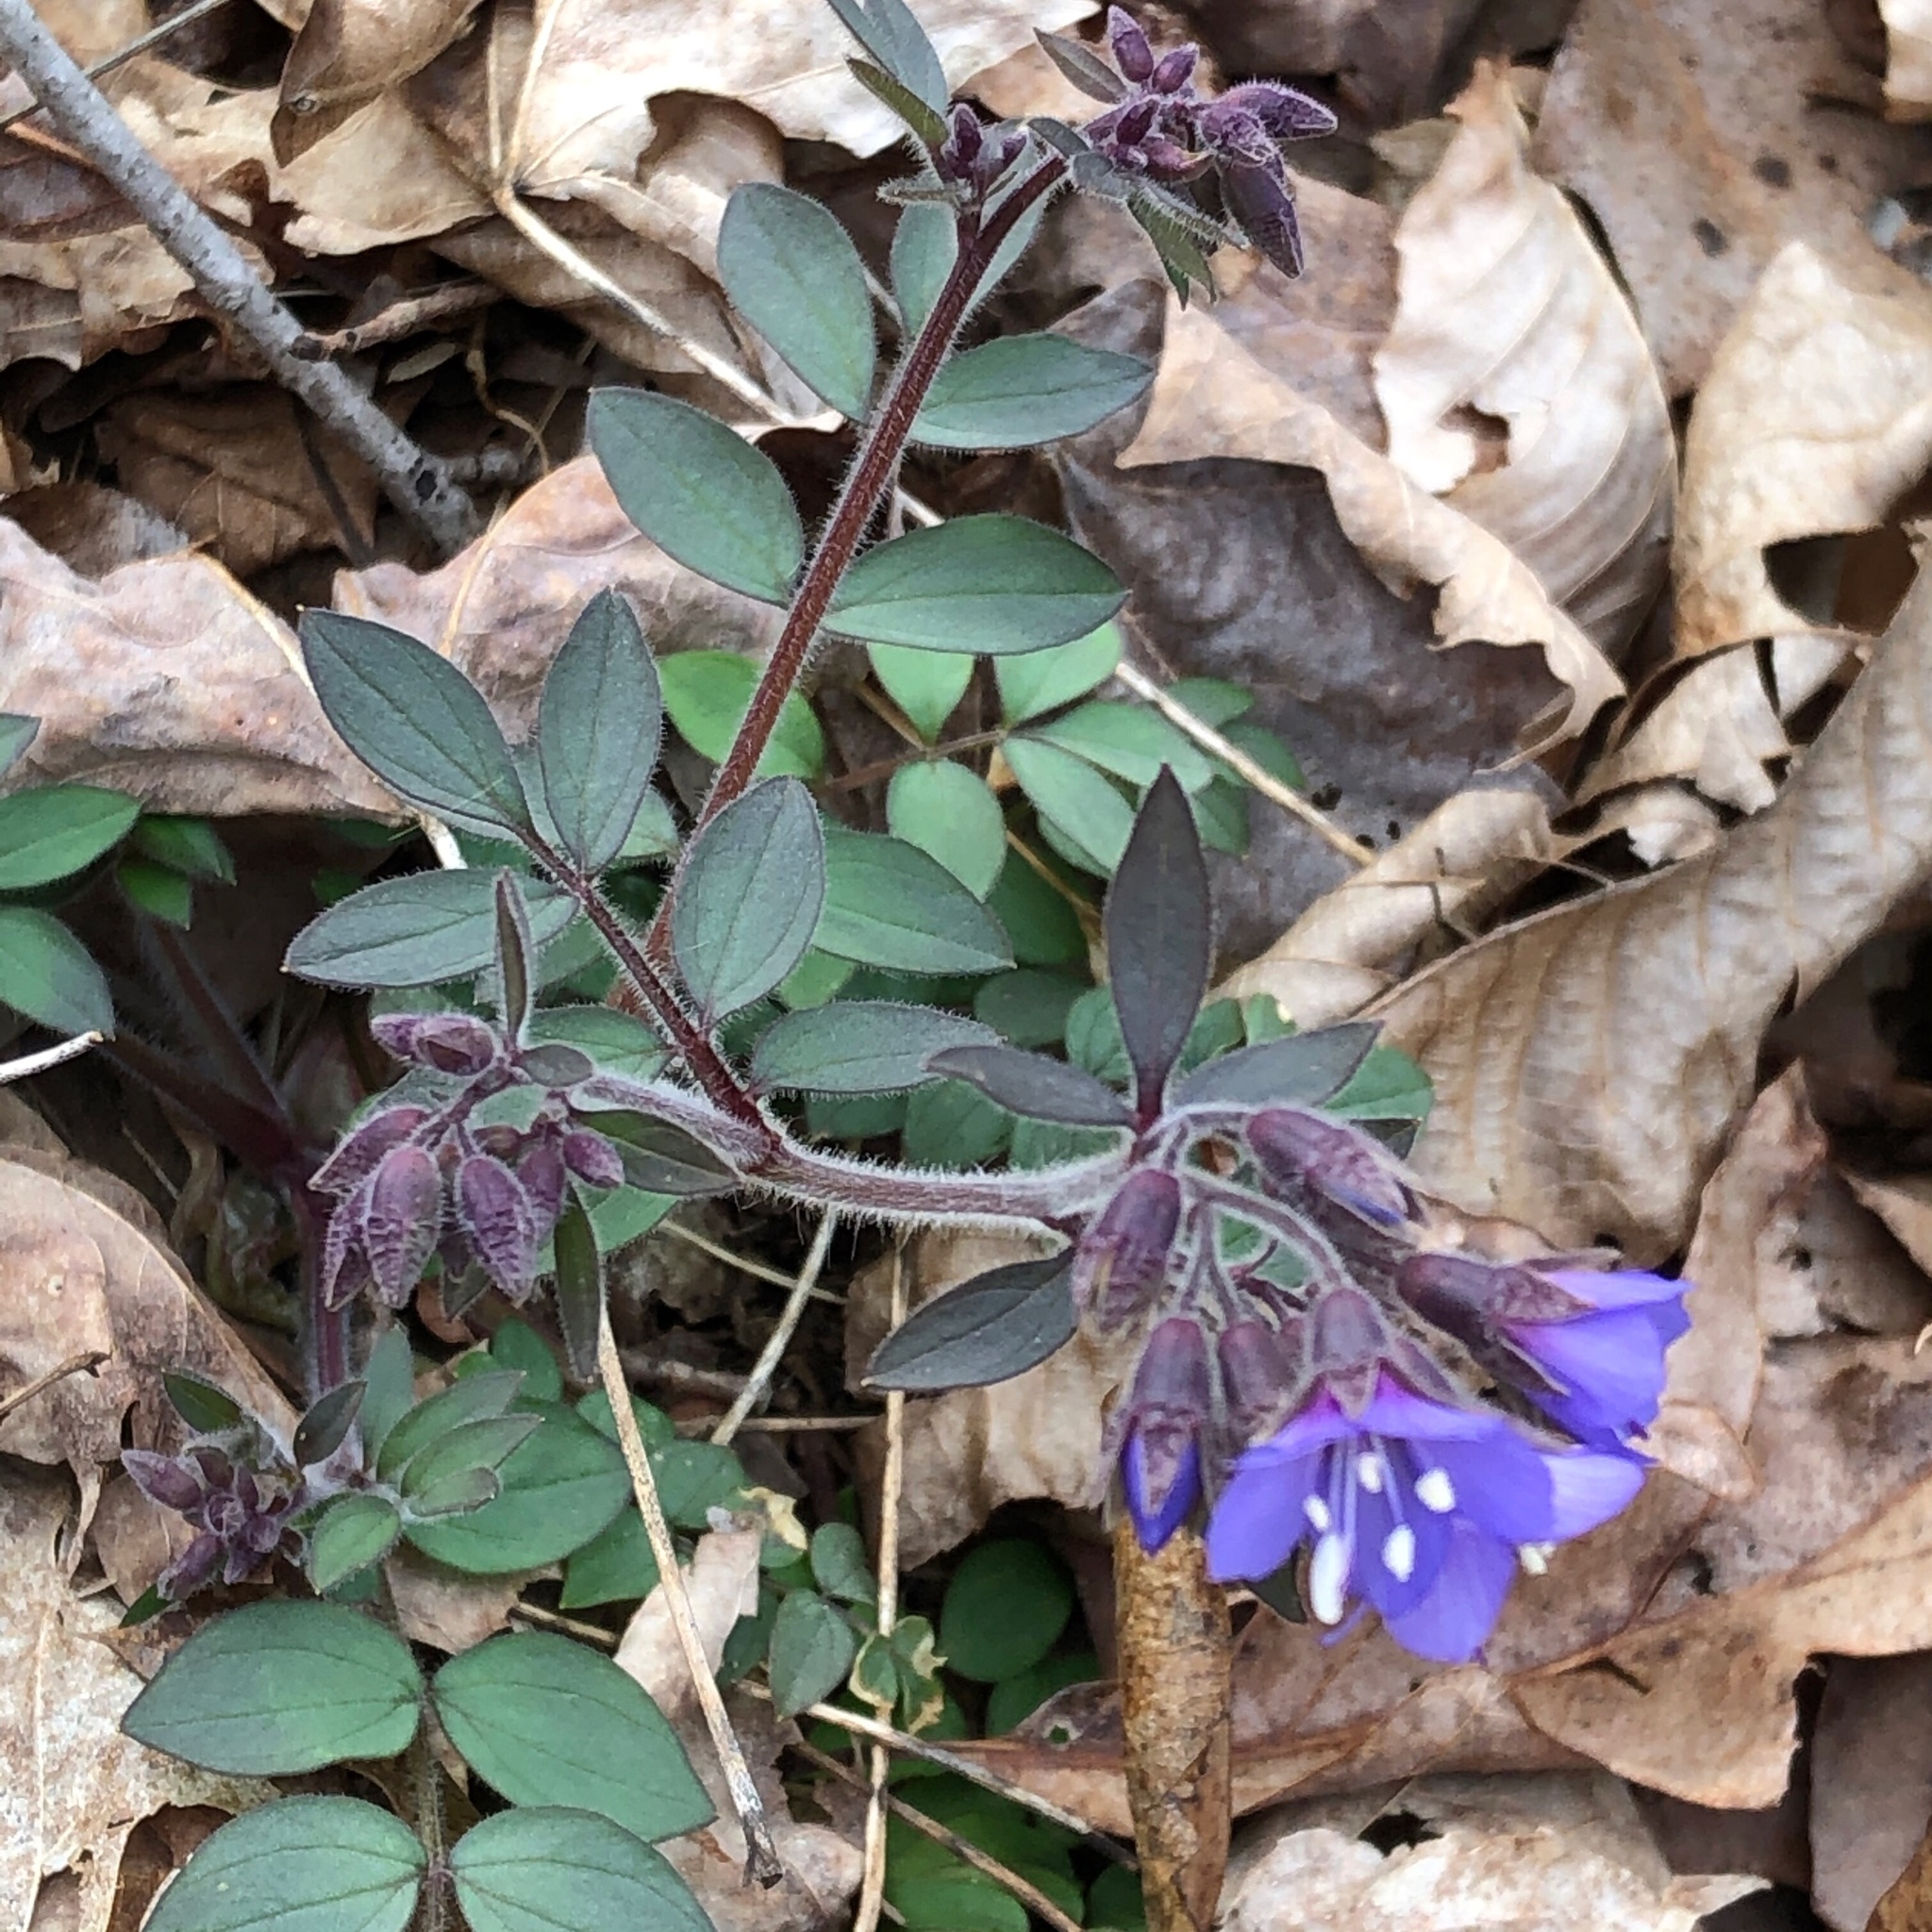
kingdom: Plantae
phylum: Tracheophyta
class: Magnoliopsida
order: Ericales
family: Polemoniaceae
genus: Polemonium
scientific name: Polemonium reptans
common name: Creeping jacob's-ladder
